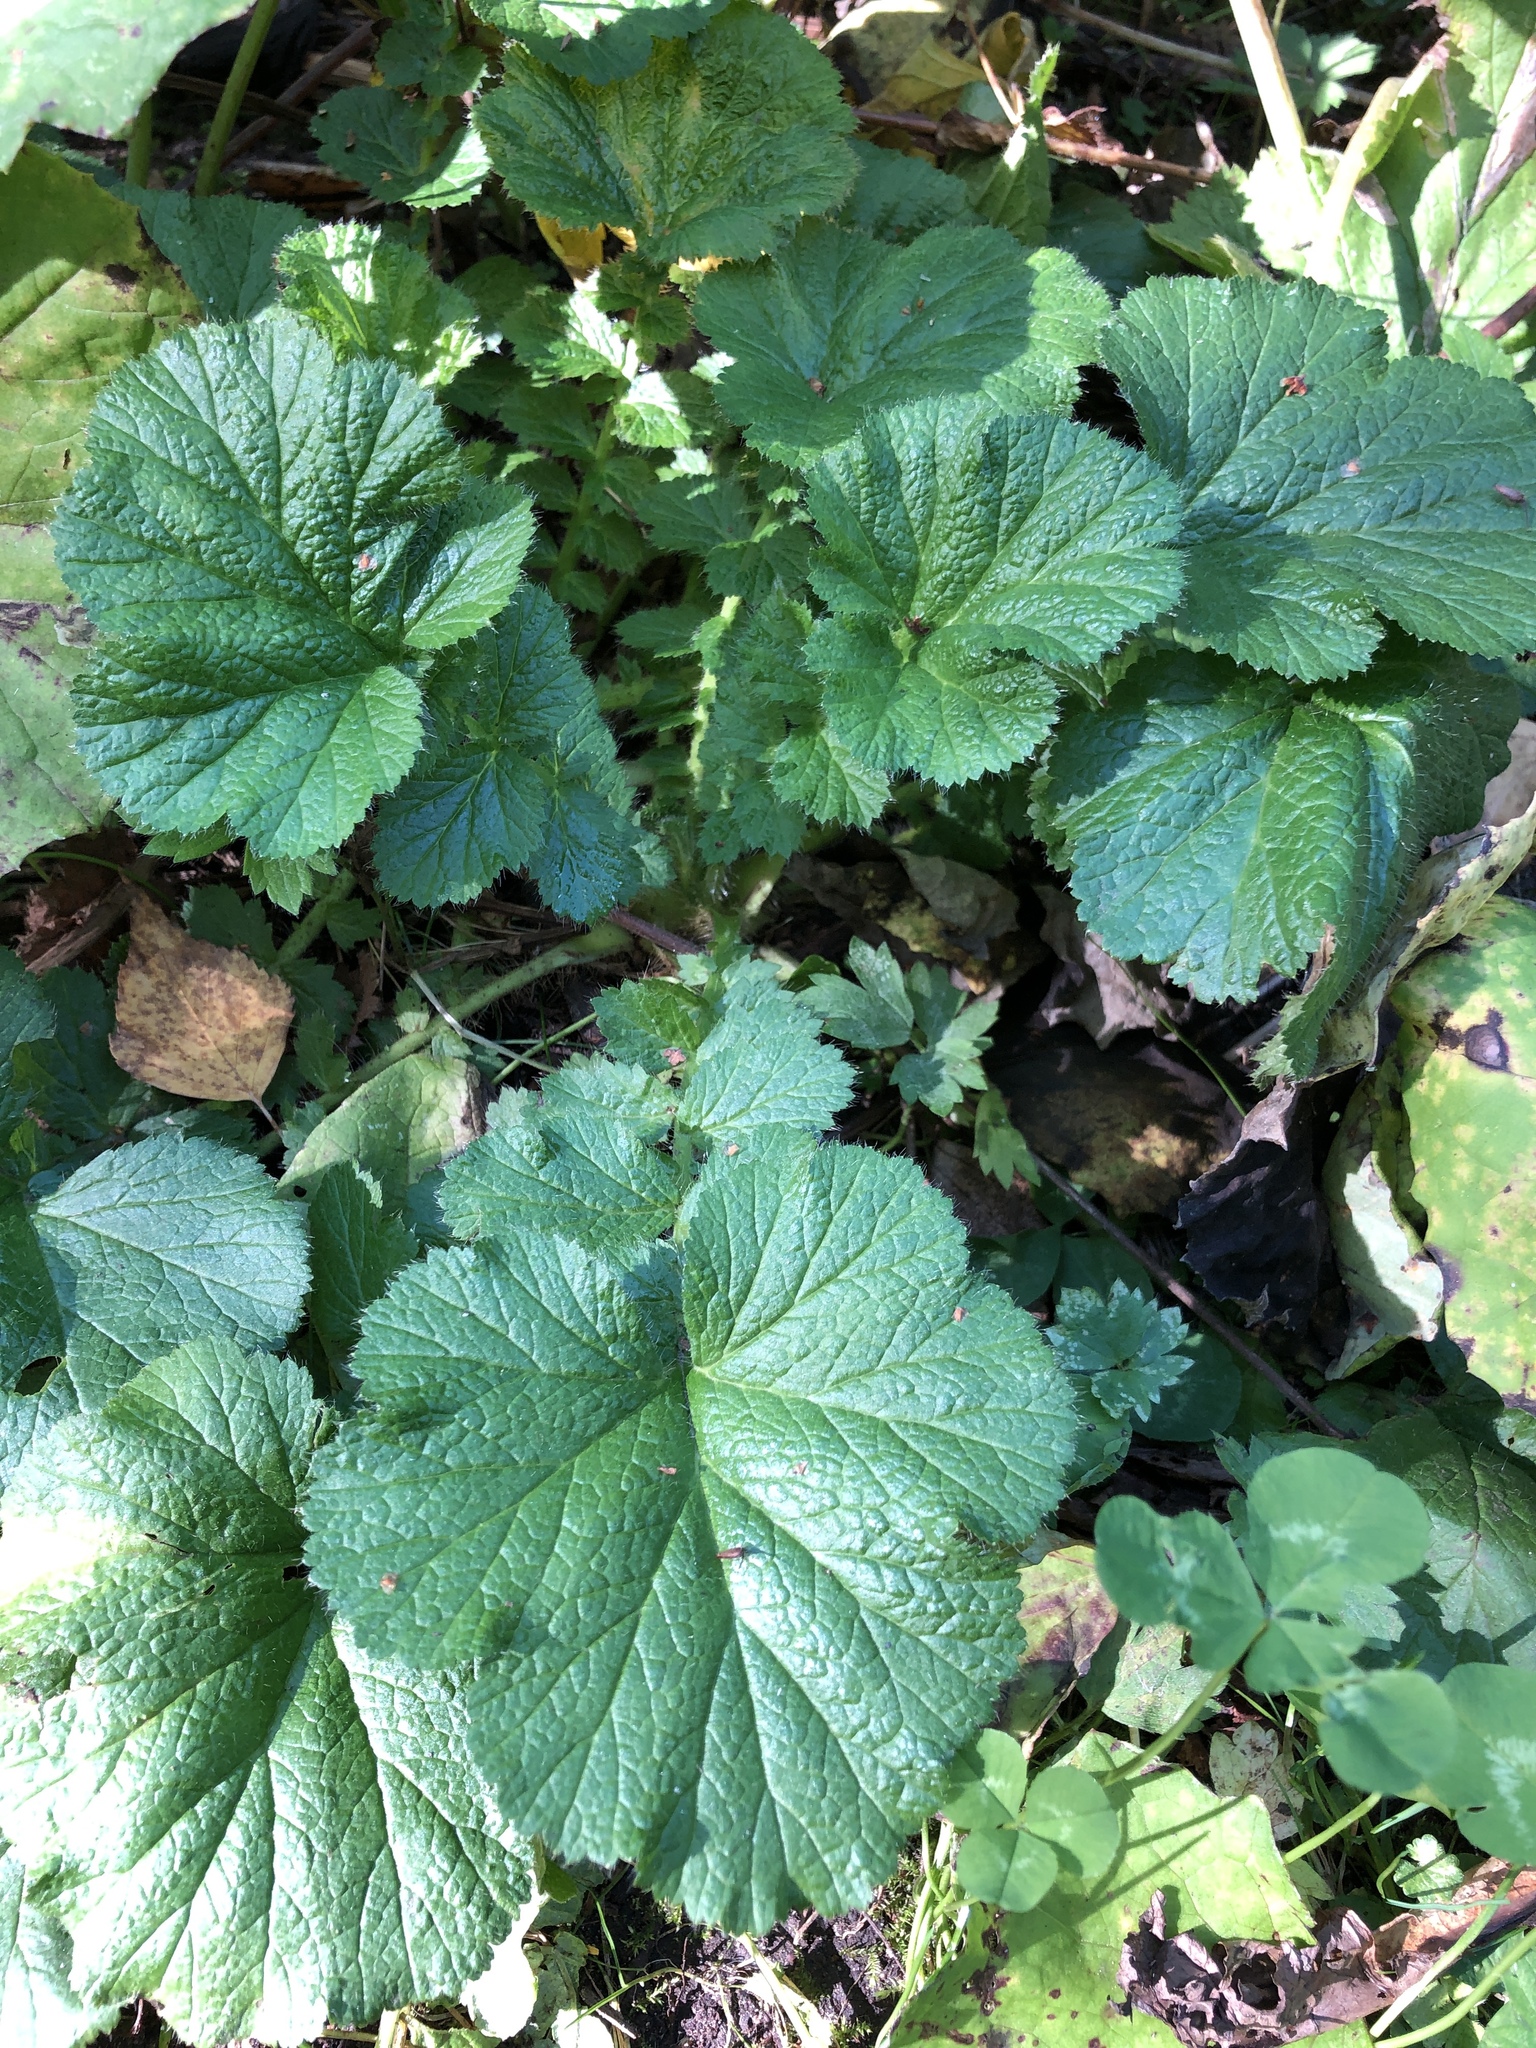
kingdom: Plantae
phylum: Tracheophyta
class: Magnoliopsida
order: Rosales
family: Rosaceae
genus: Geum
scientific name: Geum
